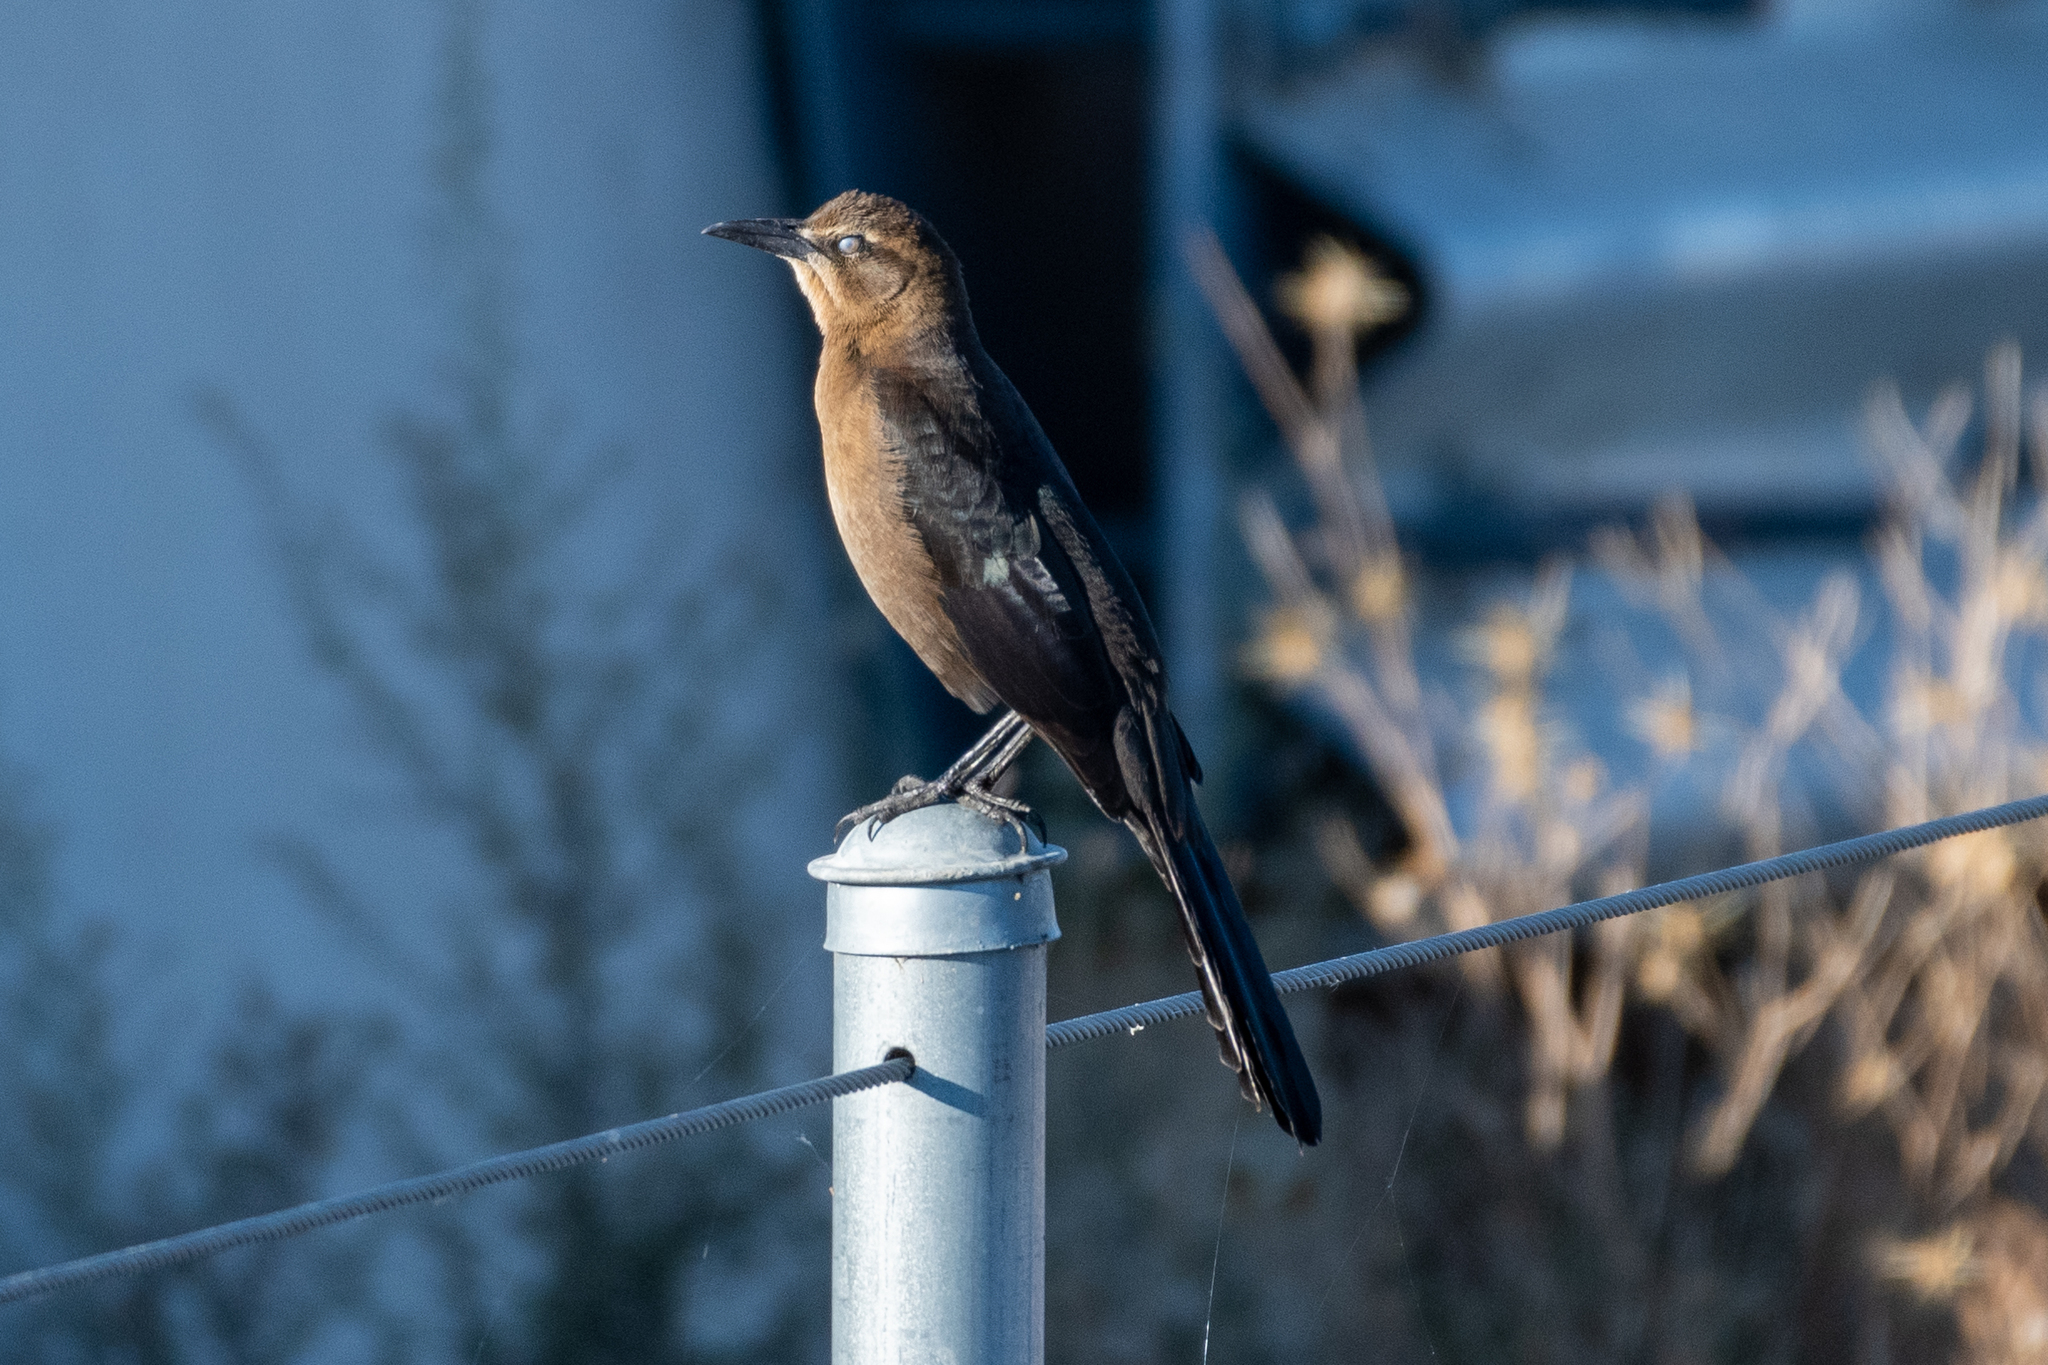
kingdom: Animalia
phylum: Chordata
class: Aves
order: Passeriformes
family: Icteridae
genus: Quiscalus
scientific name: Quiscalus mexicanus
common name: Great-tailed grackle
